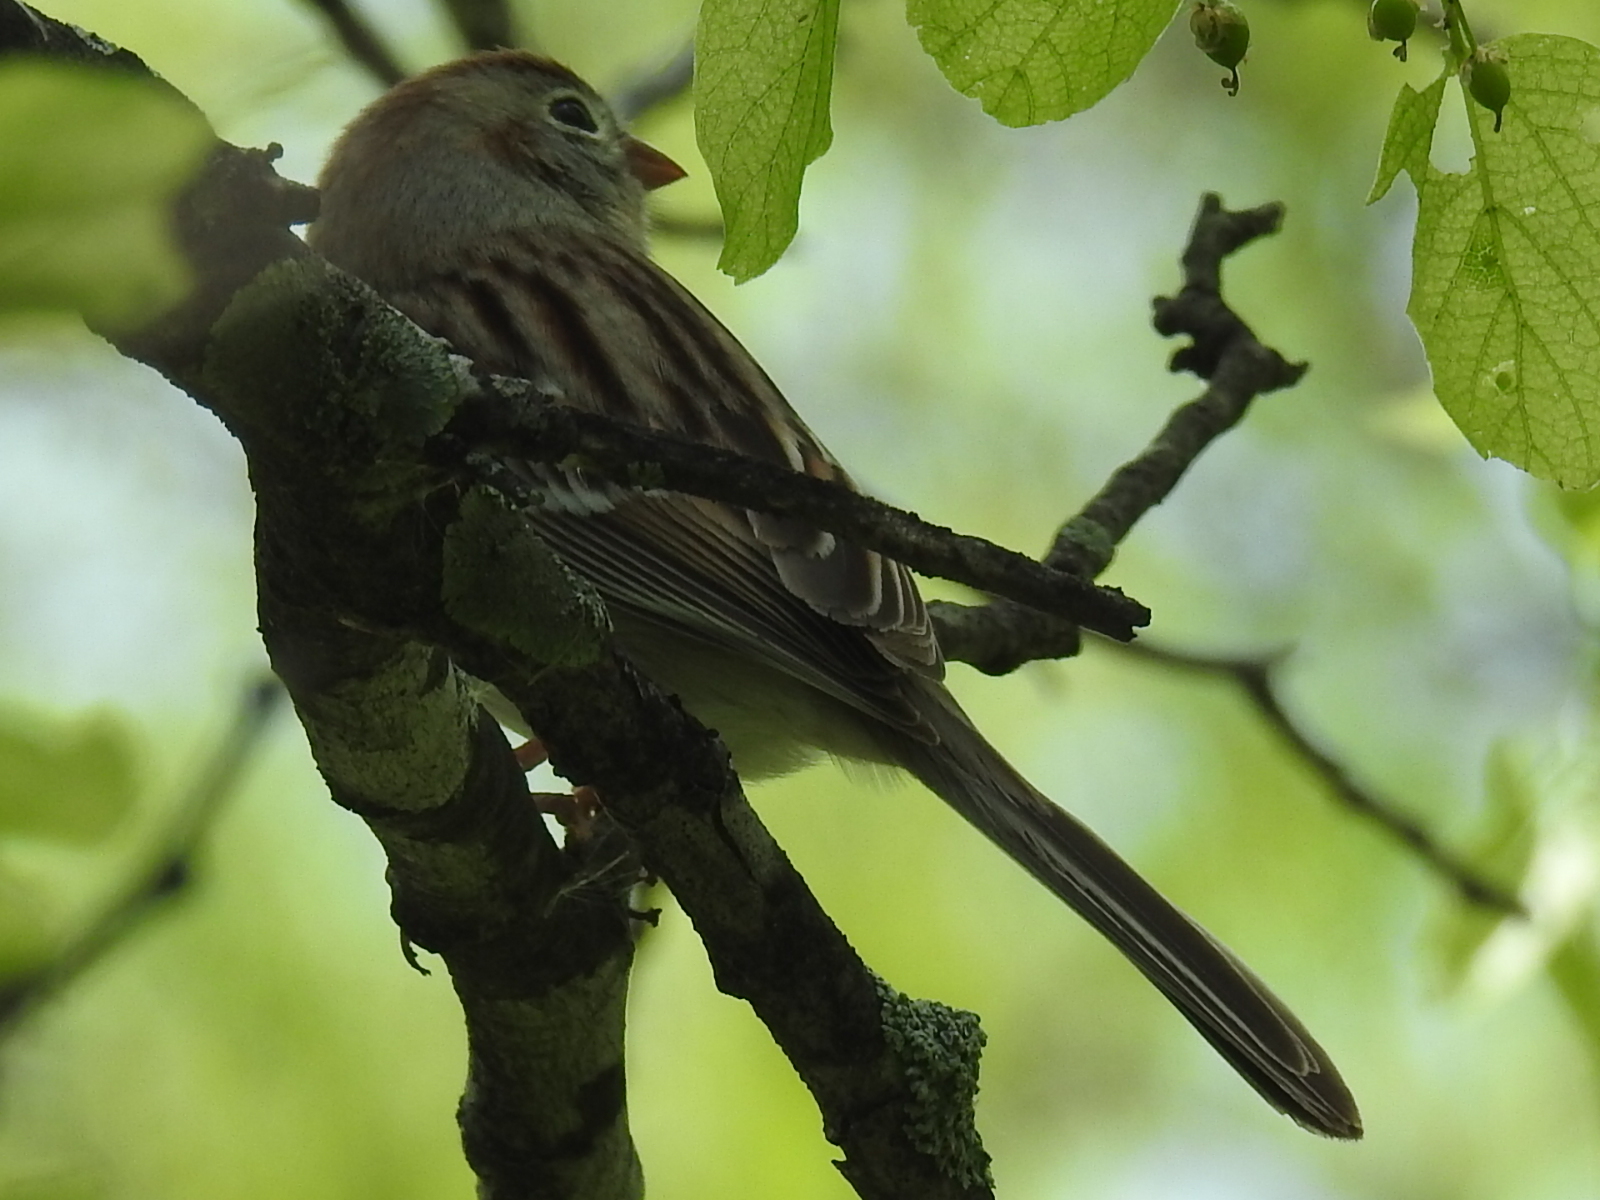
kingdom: Animalia
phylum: Chordata
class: Aves
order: Passeriformes
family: Passerellidae
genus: Spizella
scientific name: Spizella pusilla
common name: Field sparrow
